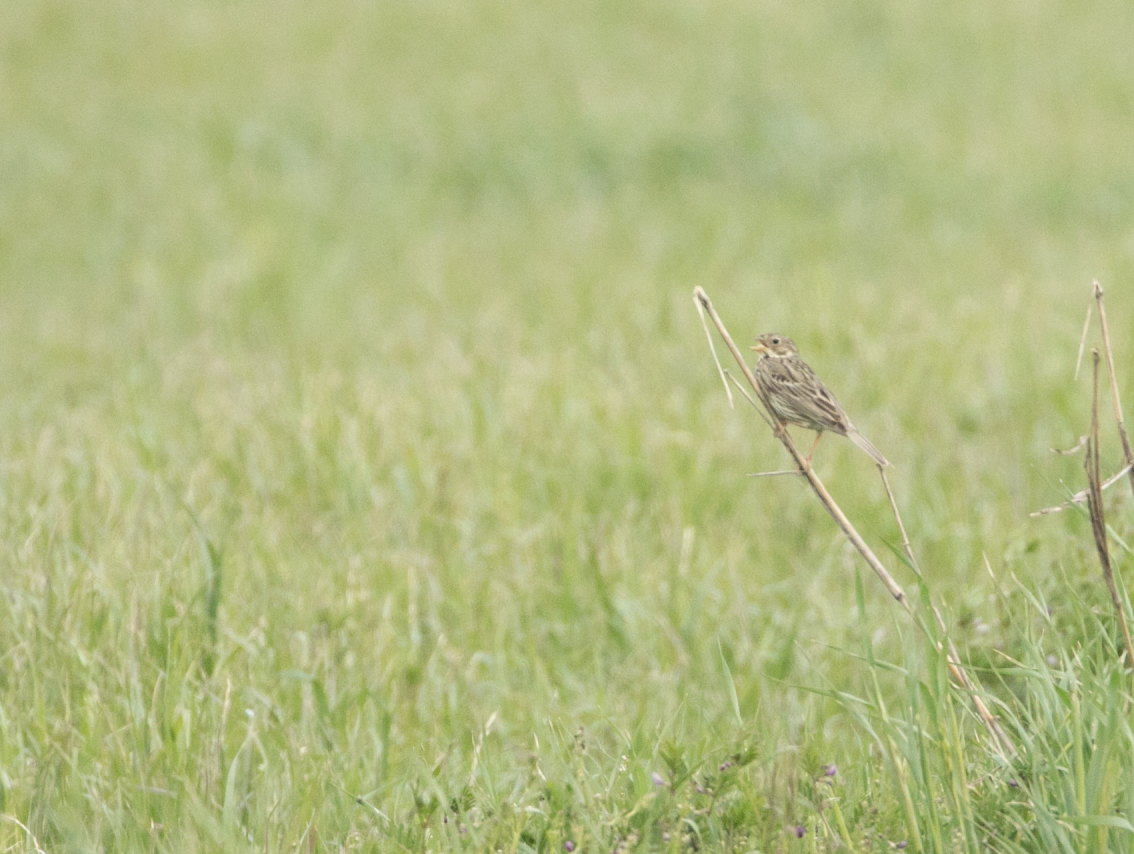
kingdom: Animalia
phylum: Chordata
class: Aves
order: Passeriformes
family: Emberizidae
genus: Emberiza
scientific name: Emberiza calandra
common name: Corn bunting
